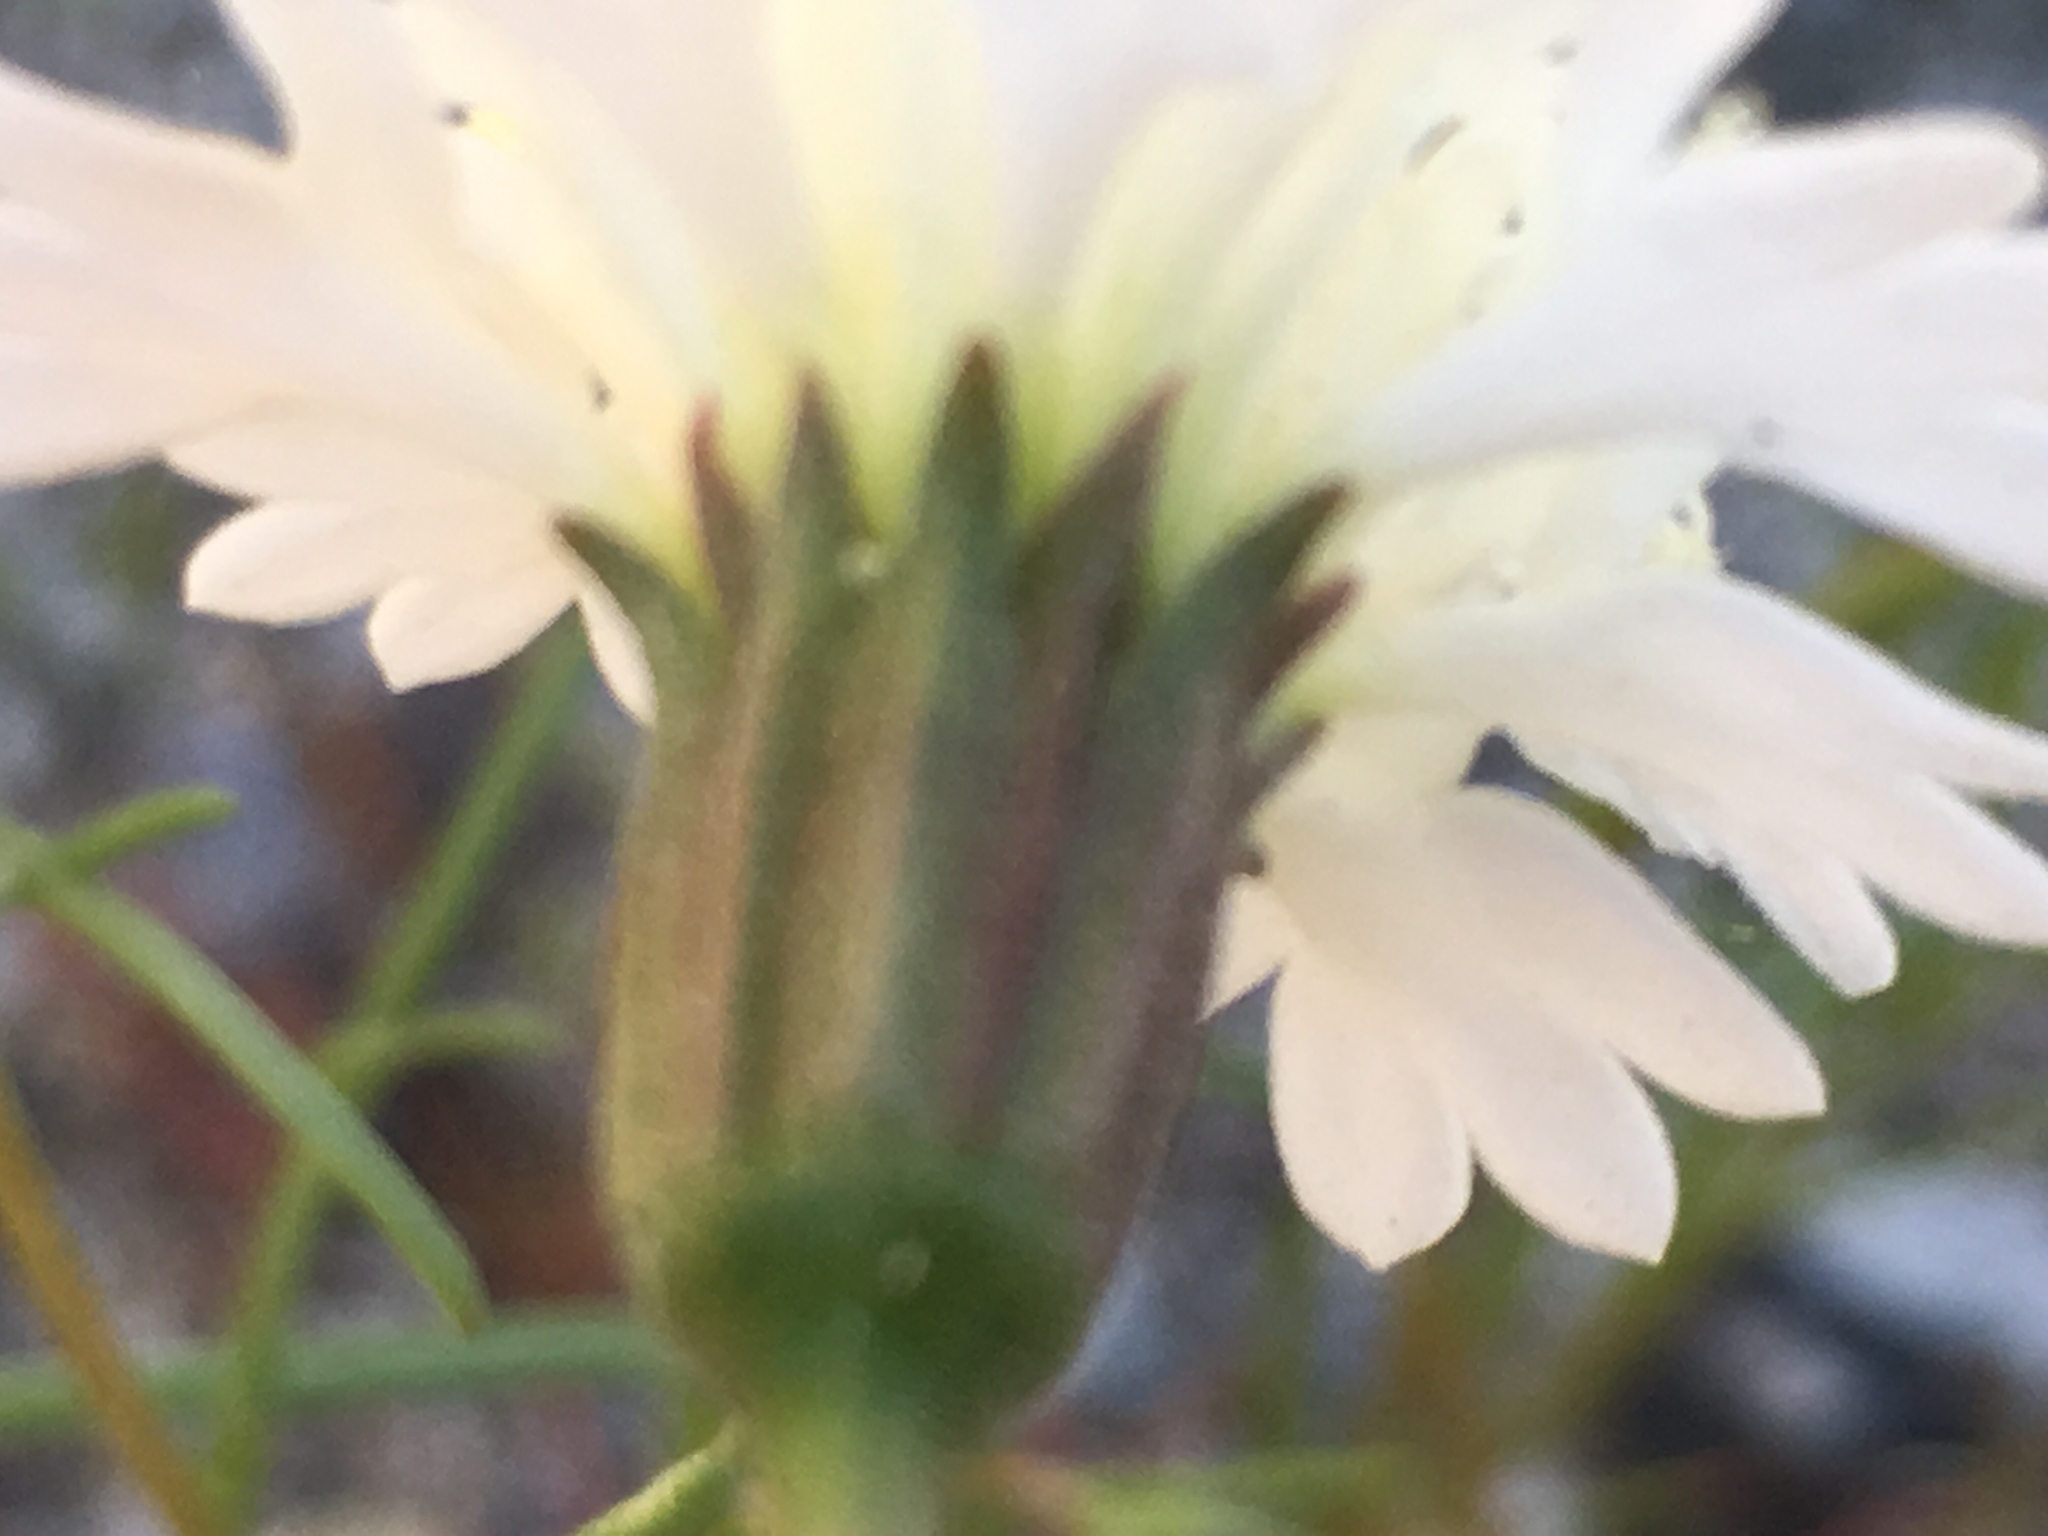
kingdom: Plantae
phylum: Tracheophyta
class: Magnoliopsida
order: Asterales
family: Asteraceae
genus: Chaenactis
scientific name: Chaenactis fremontii
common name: Fremont pincushion
